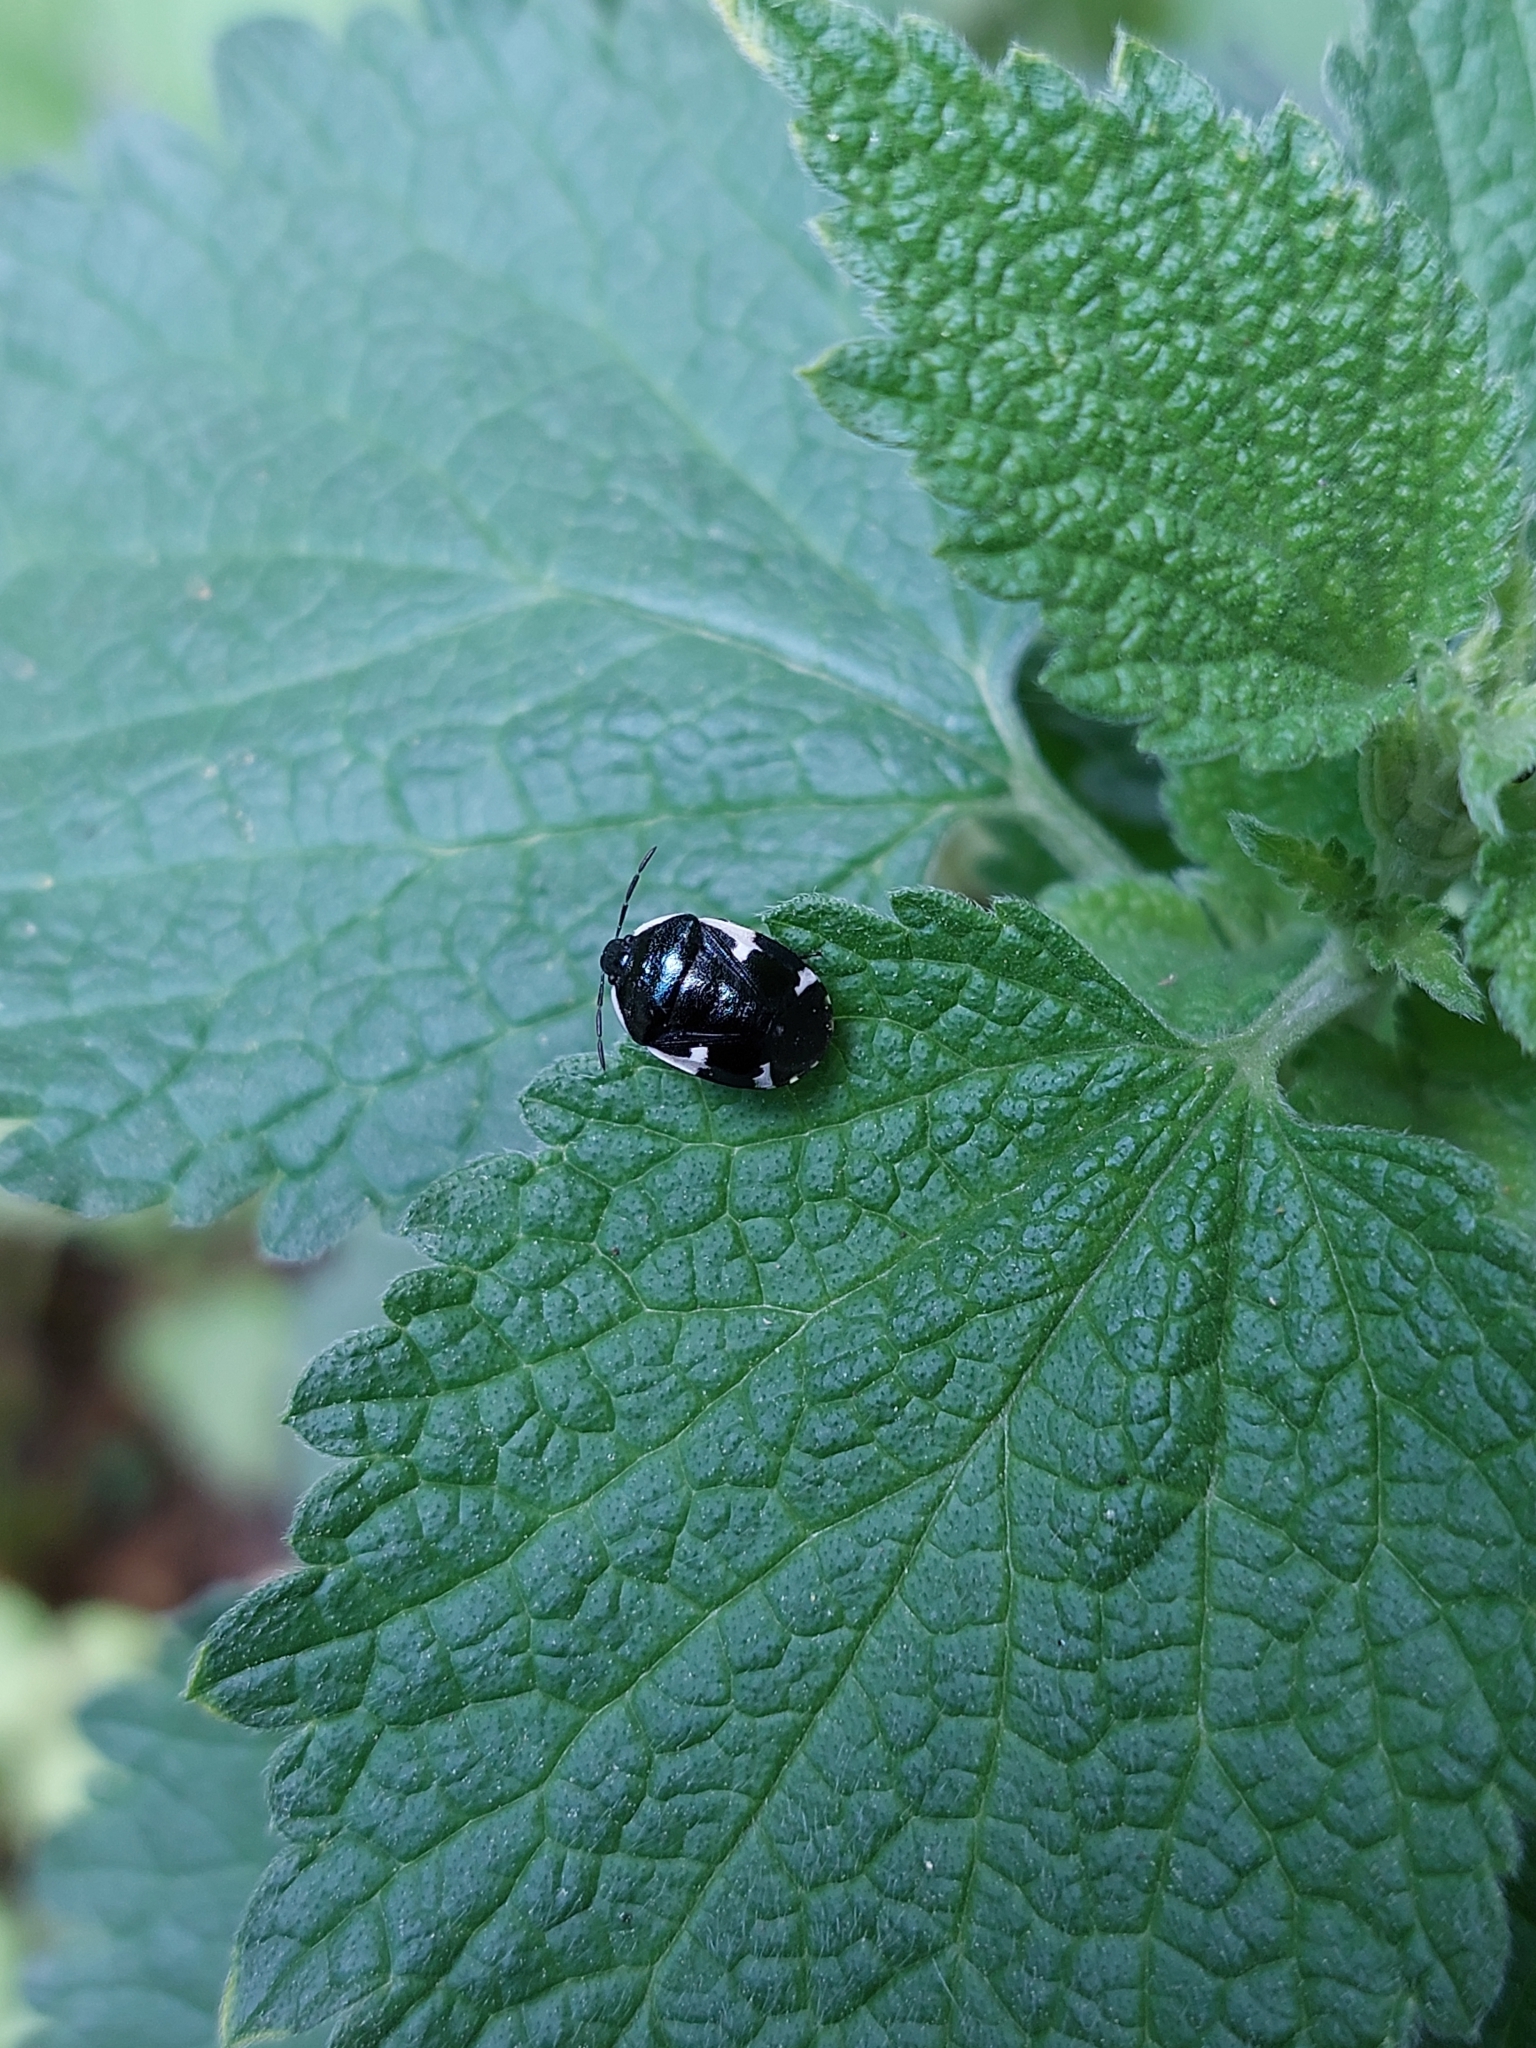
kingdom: Animalia
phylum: Arthropoda
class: Insecta
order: Hemiptera
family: Cydnidae
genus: Tritomegas
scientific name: Tritomegas sexmaculatus
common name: Rambur's pied shieldbug
